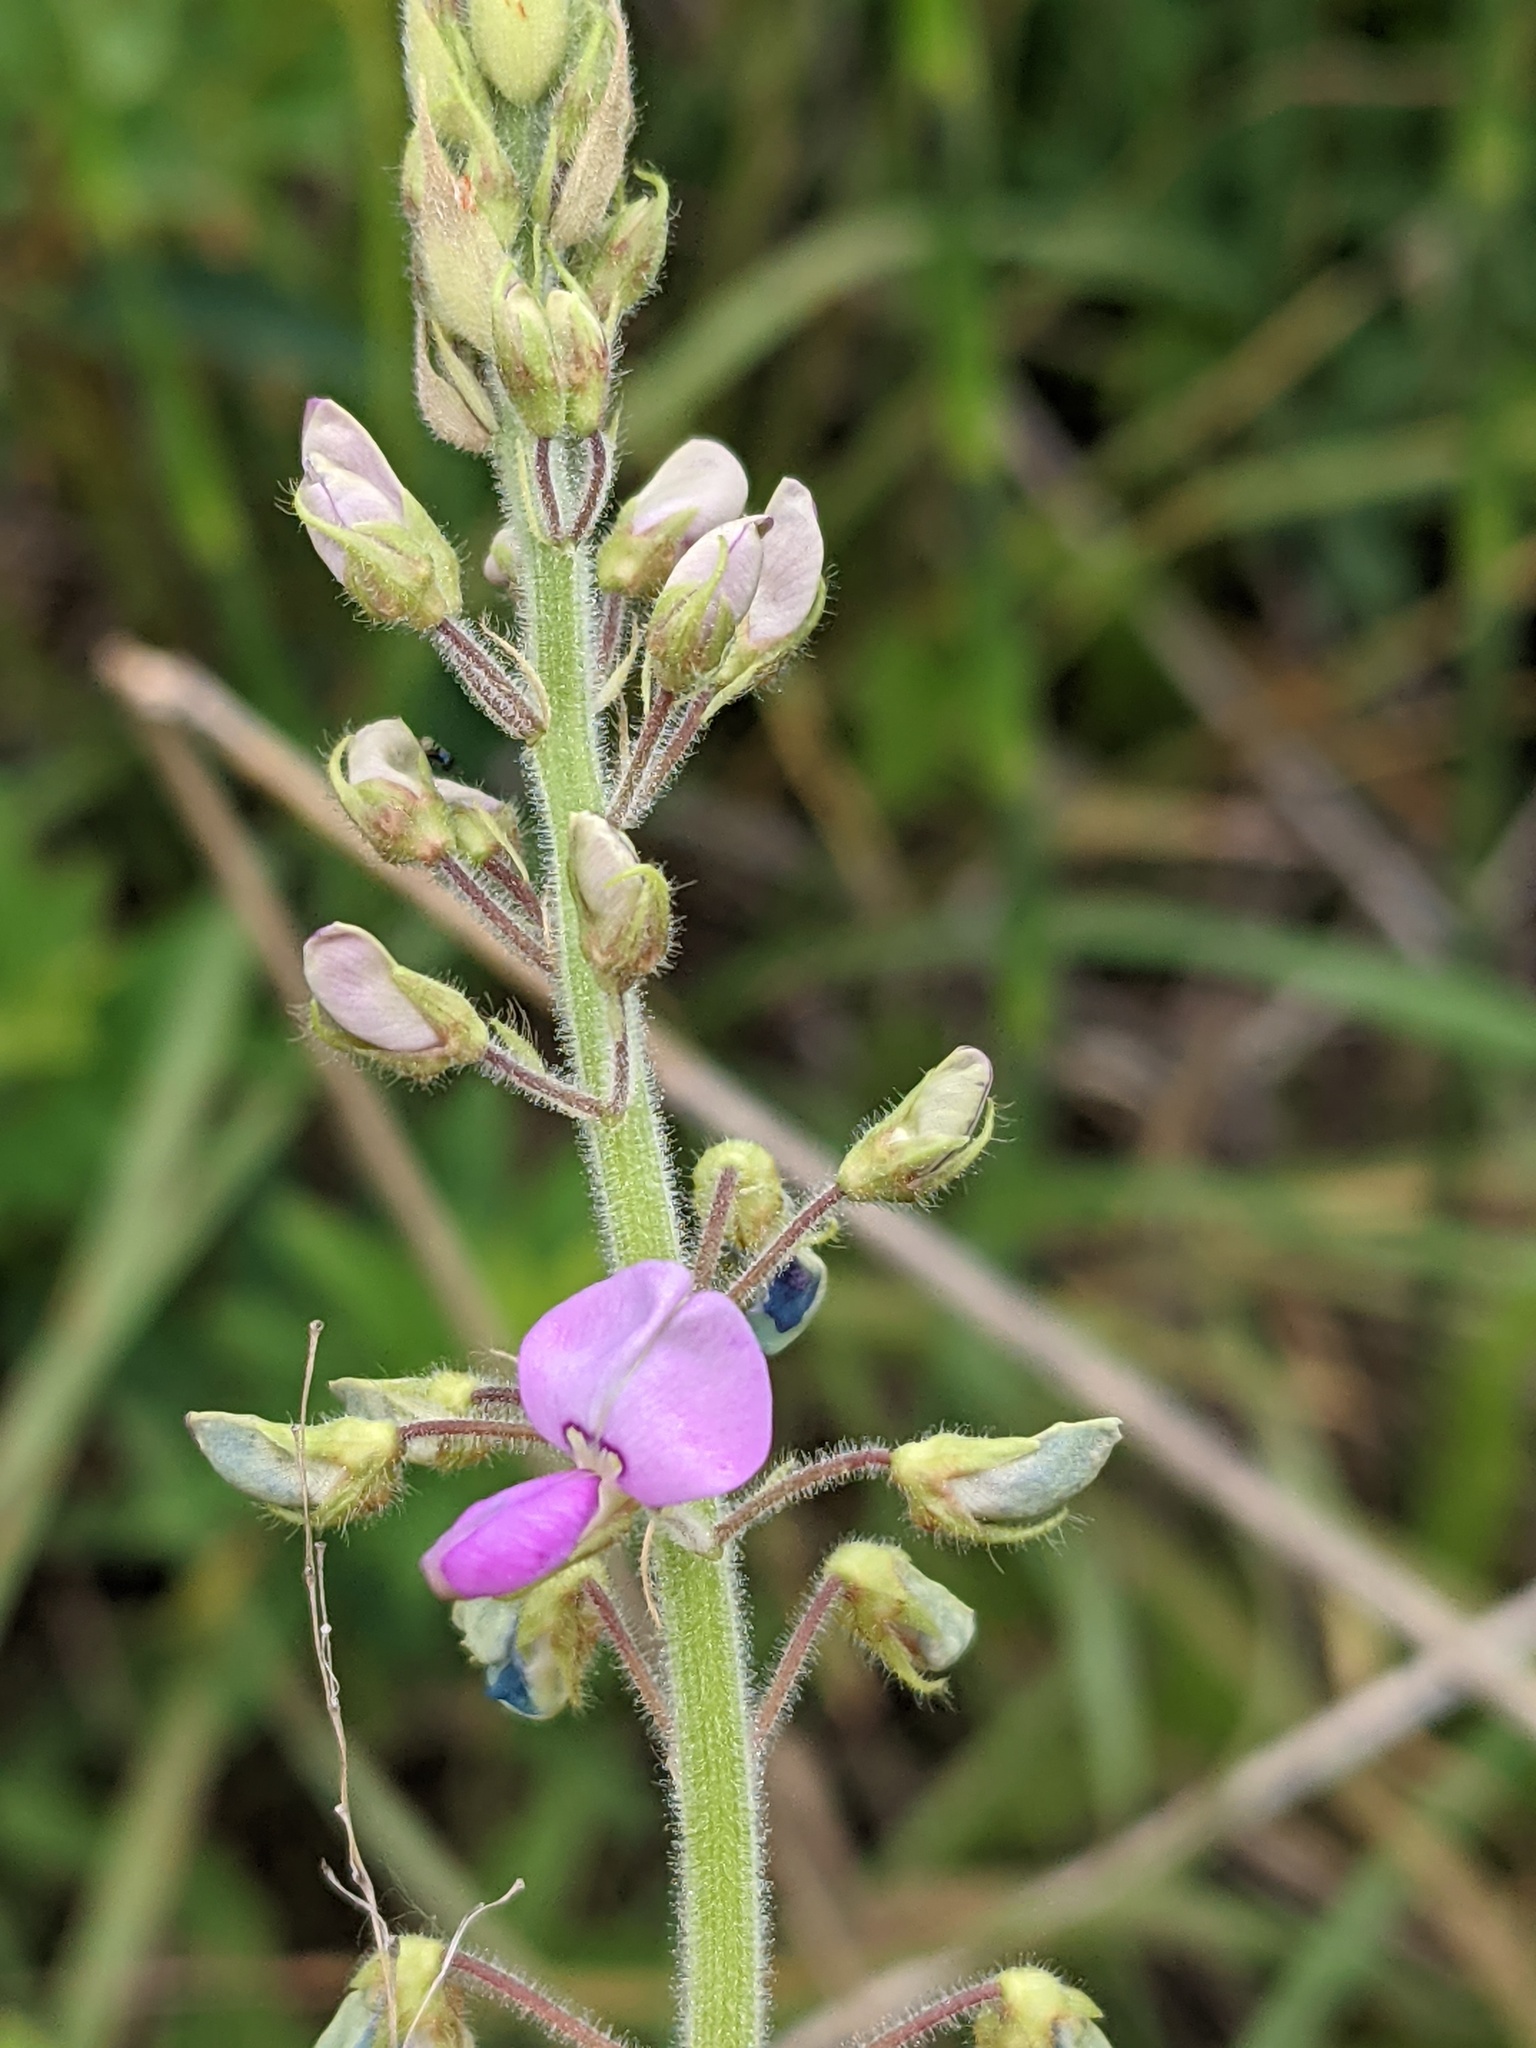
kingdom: Plantae
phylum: Tracheophyta
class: Magnoliopsida
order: Fabales
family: Fabaceae
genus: Desmodium
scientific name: Desmodium illinoense
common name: Illinois tick-clover
